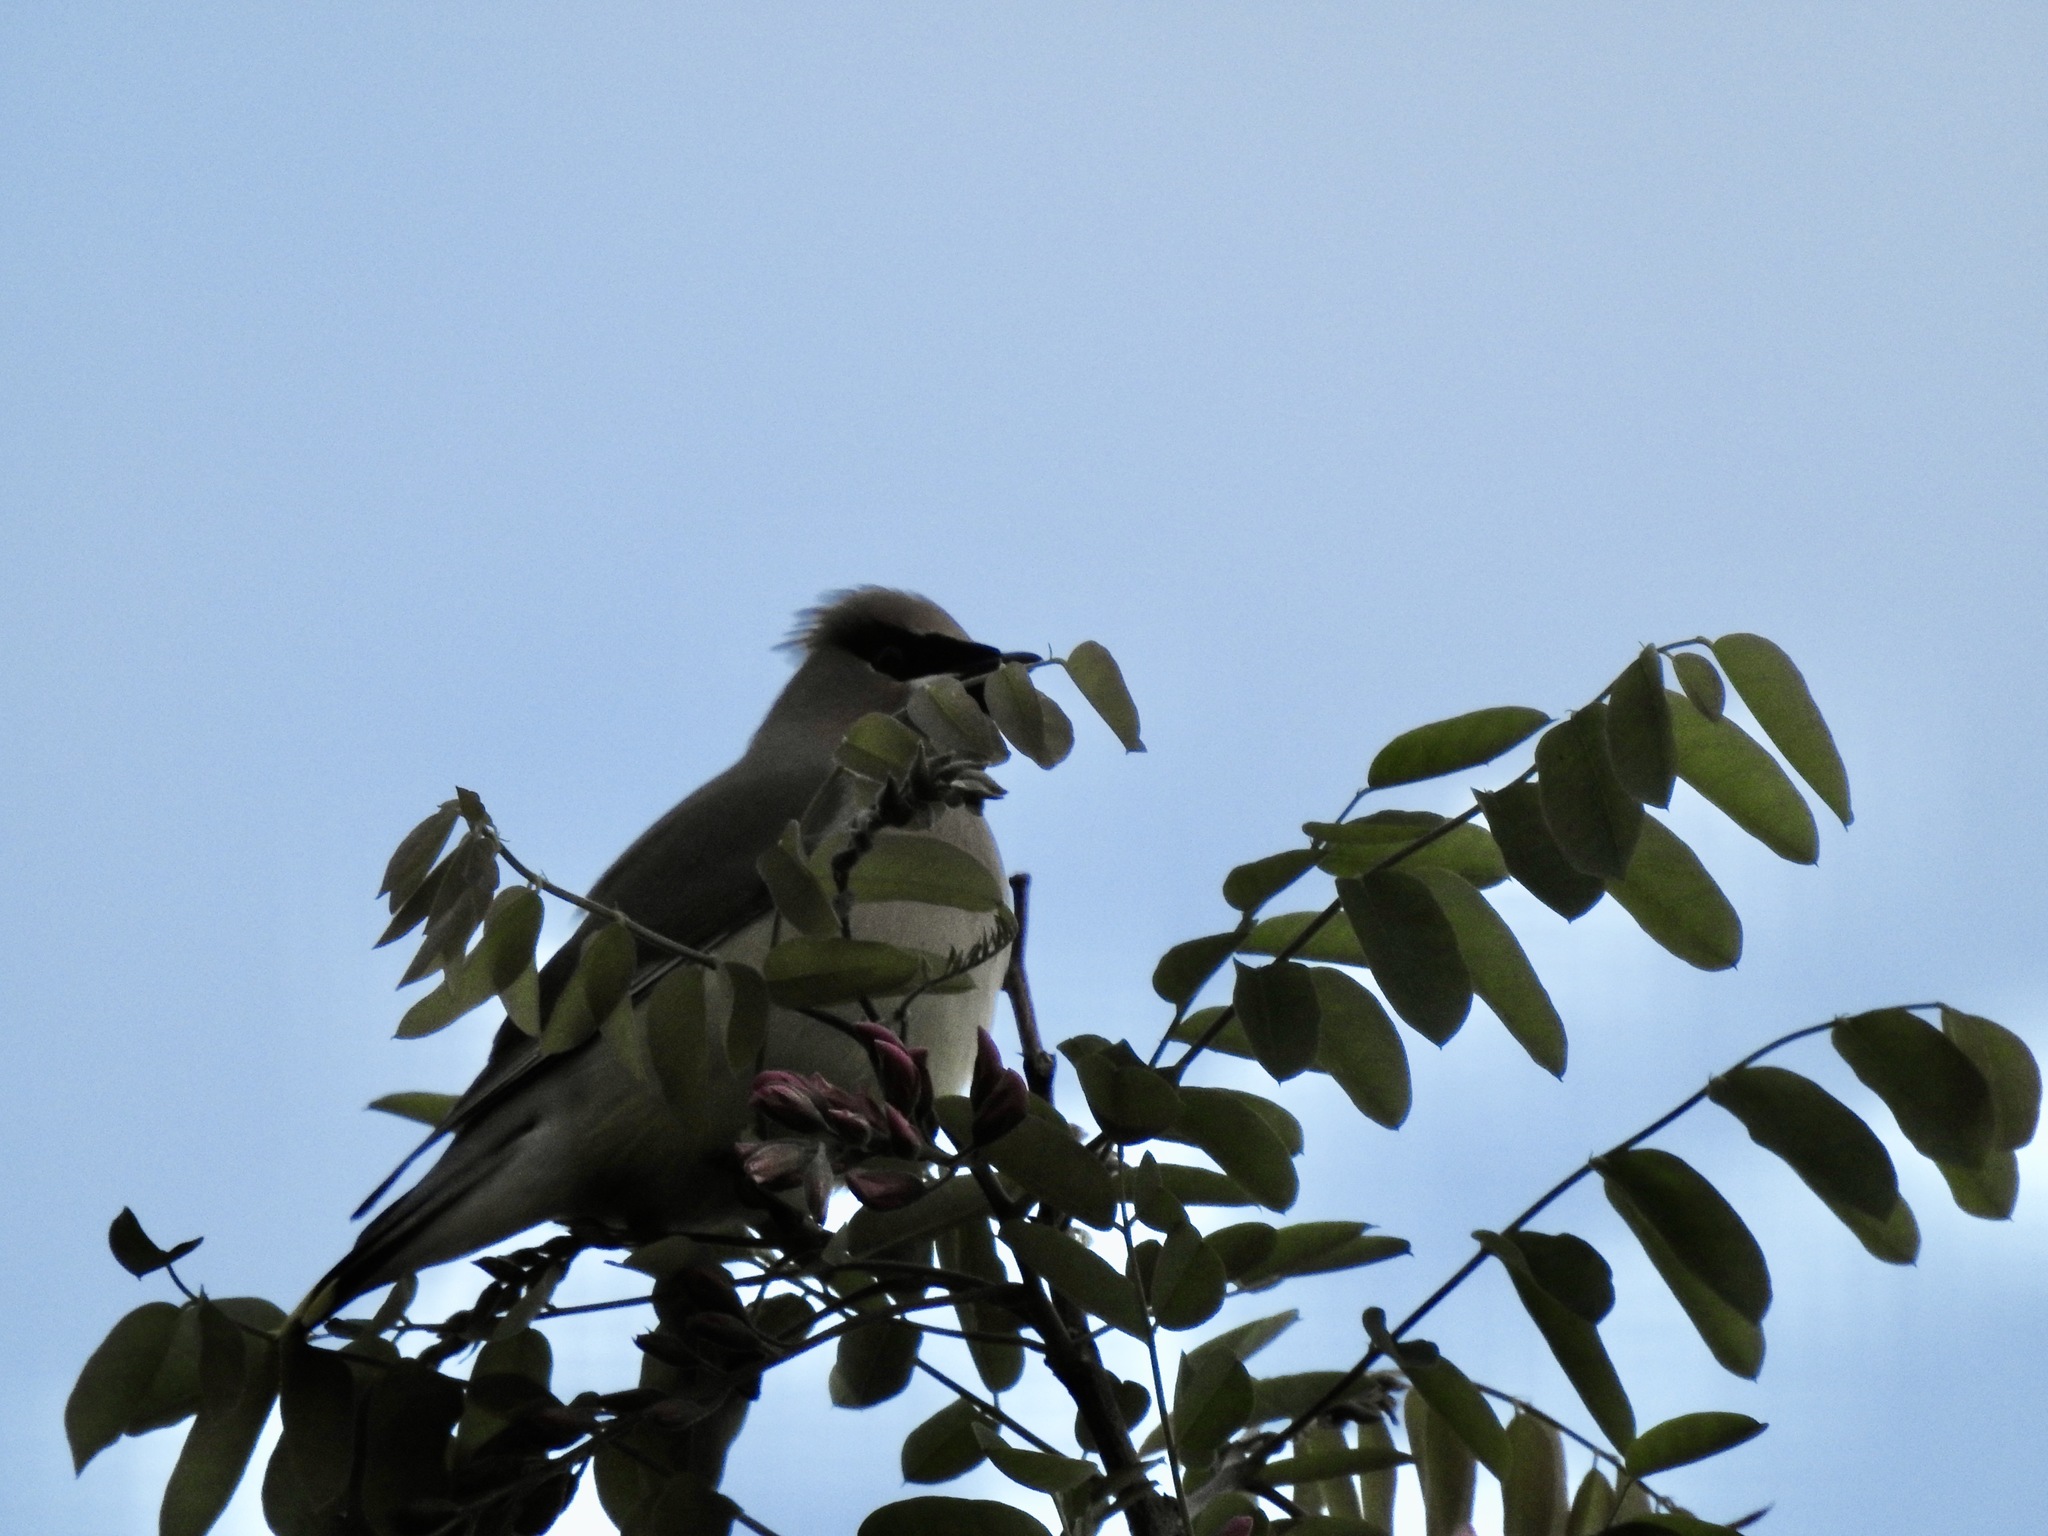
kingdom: Animalia
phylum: Chordata
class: Aves
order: Passeriformes
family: Bombycillidae
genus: Bombycilla
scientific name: Bombycilla cedrorum
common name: Cedar waxwing
